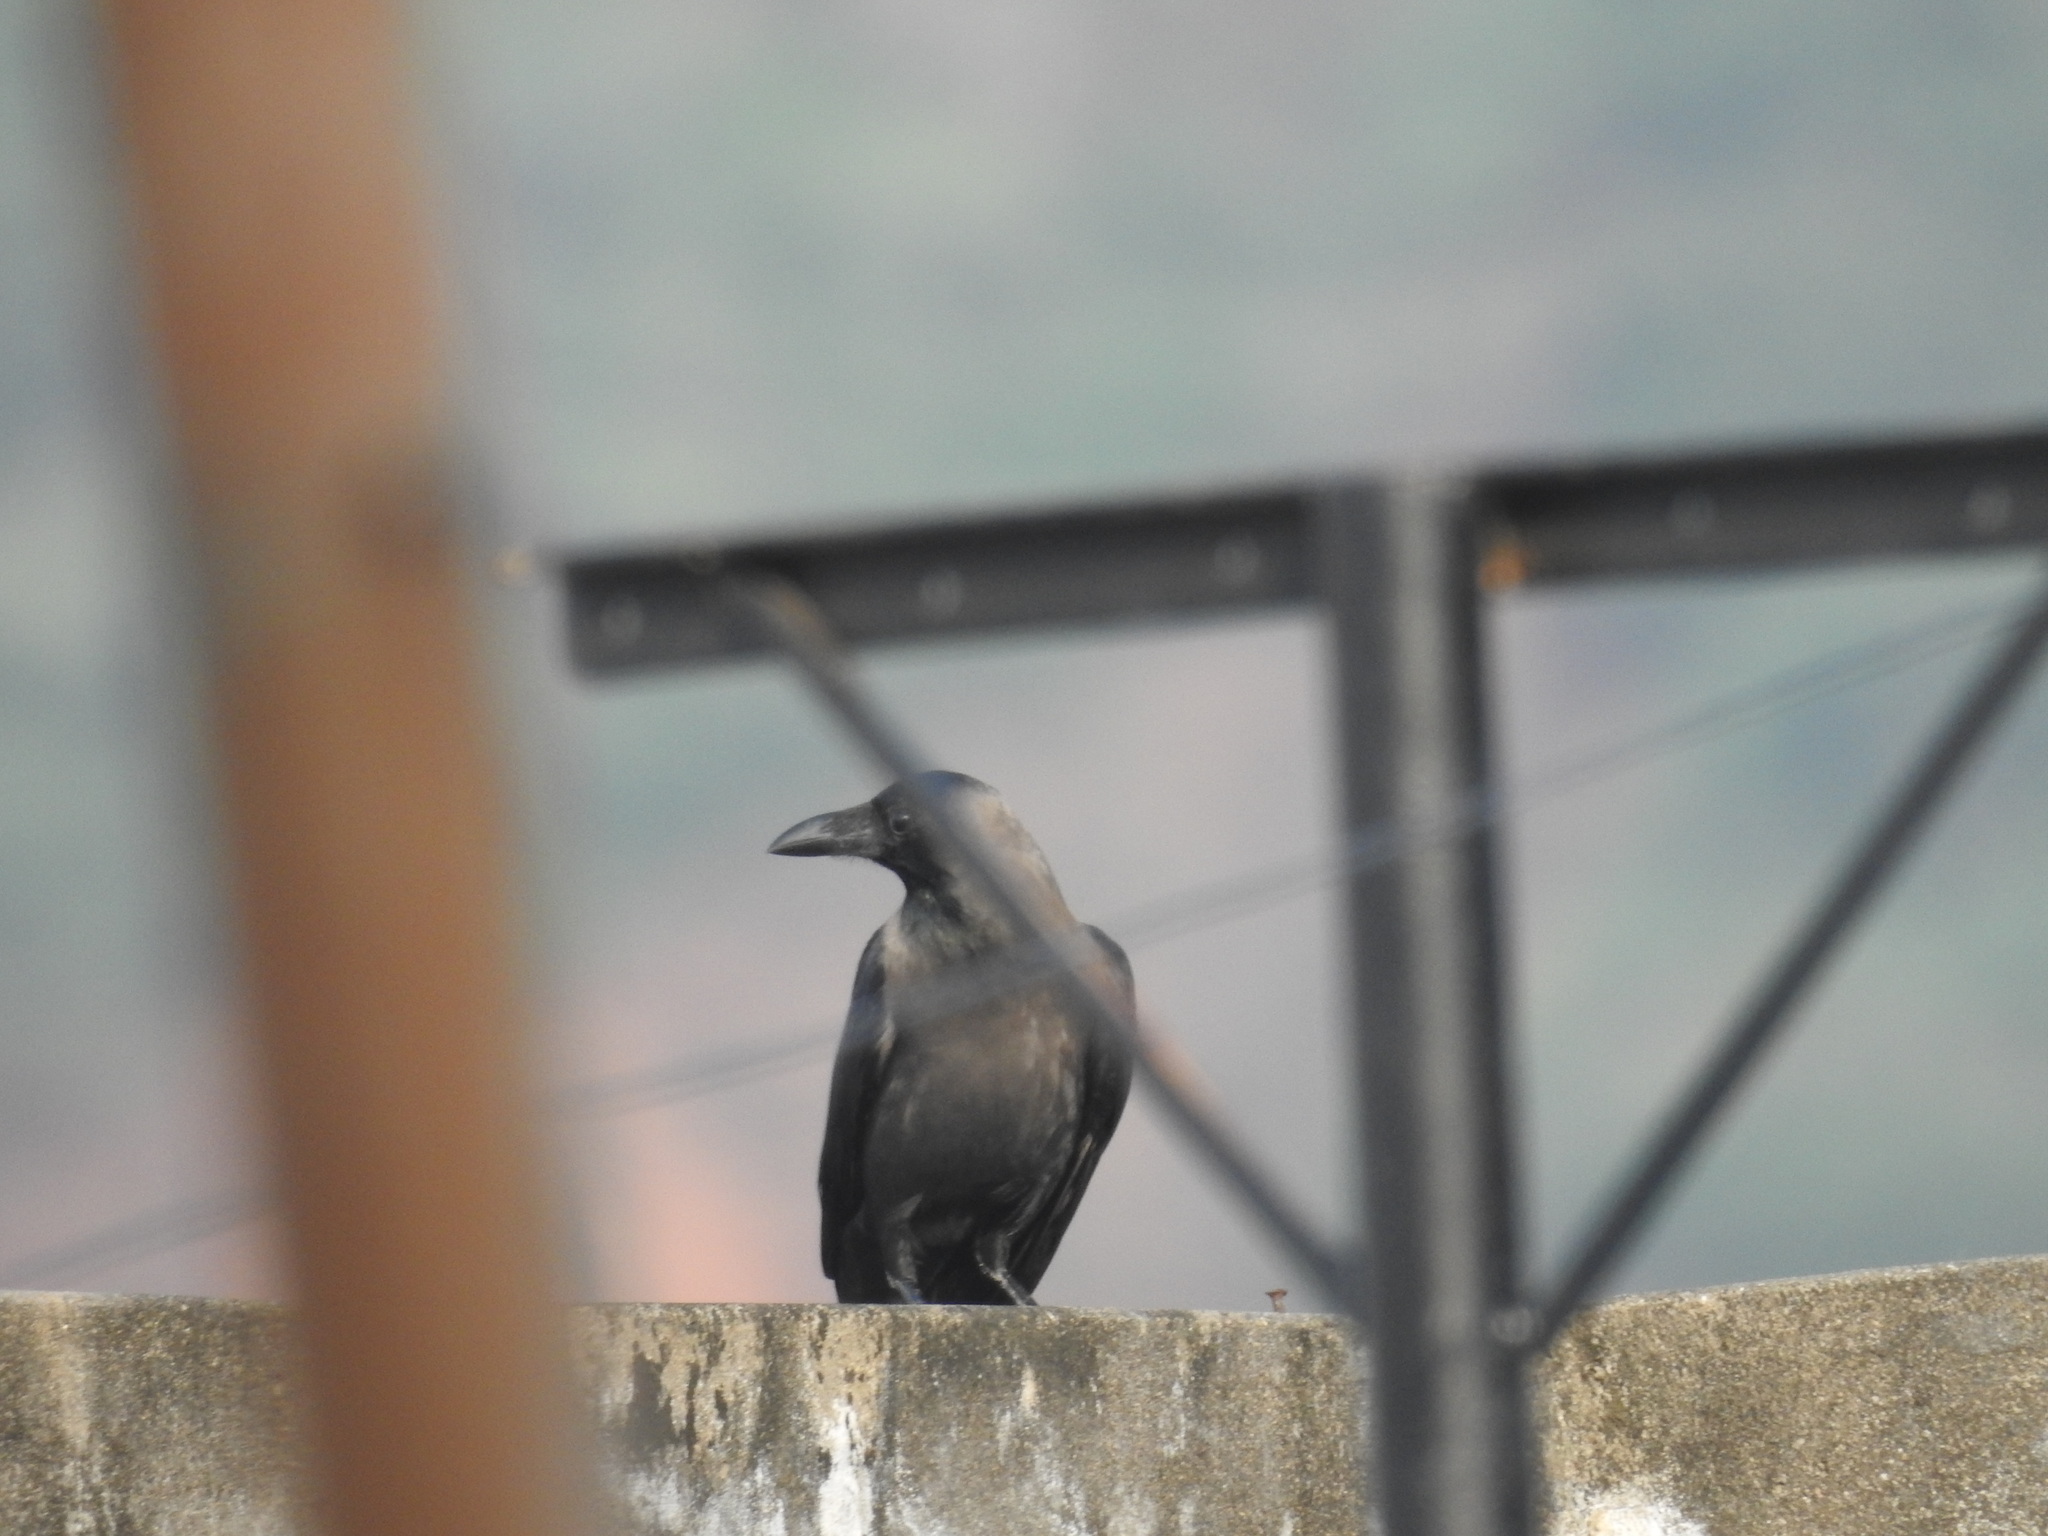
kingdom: Animalia
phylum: Chordata
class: Aves
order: Passeriformes
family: Corvidae
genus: Corvus
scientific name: Corvus splendens
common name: House crow
